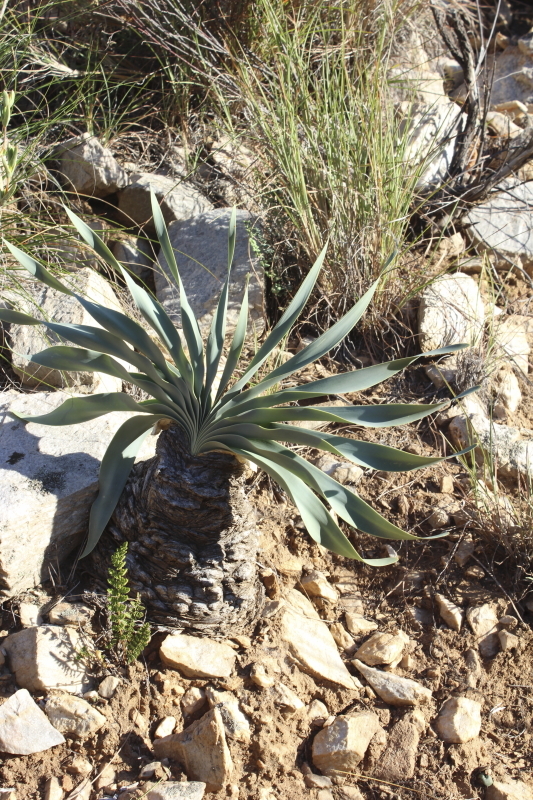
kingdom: Plantae
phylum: Tracheophyta
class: Liliopsida
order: Asparagales
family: Amaryllidaceae
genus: Boophone
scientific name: Boophone disticha
